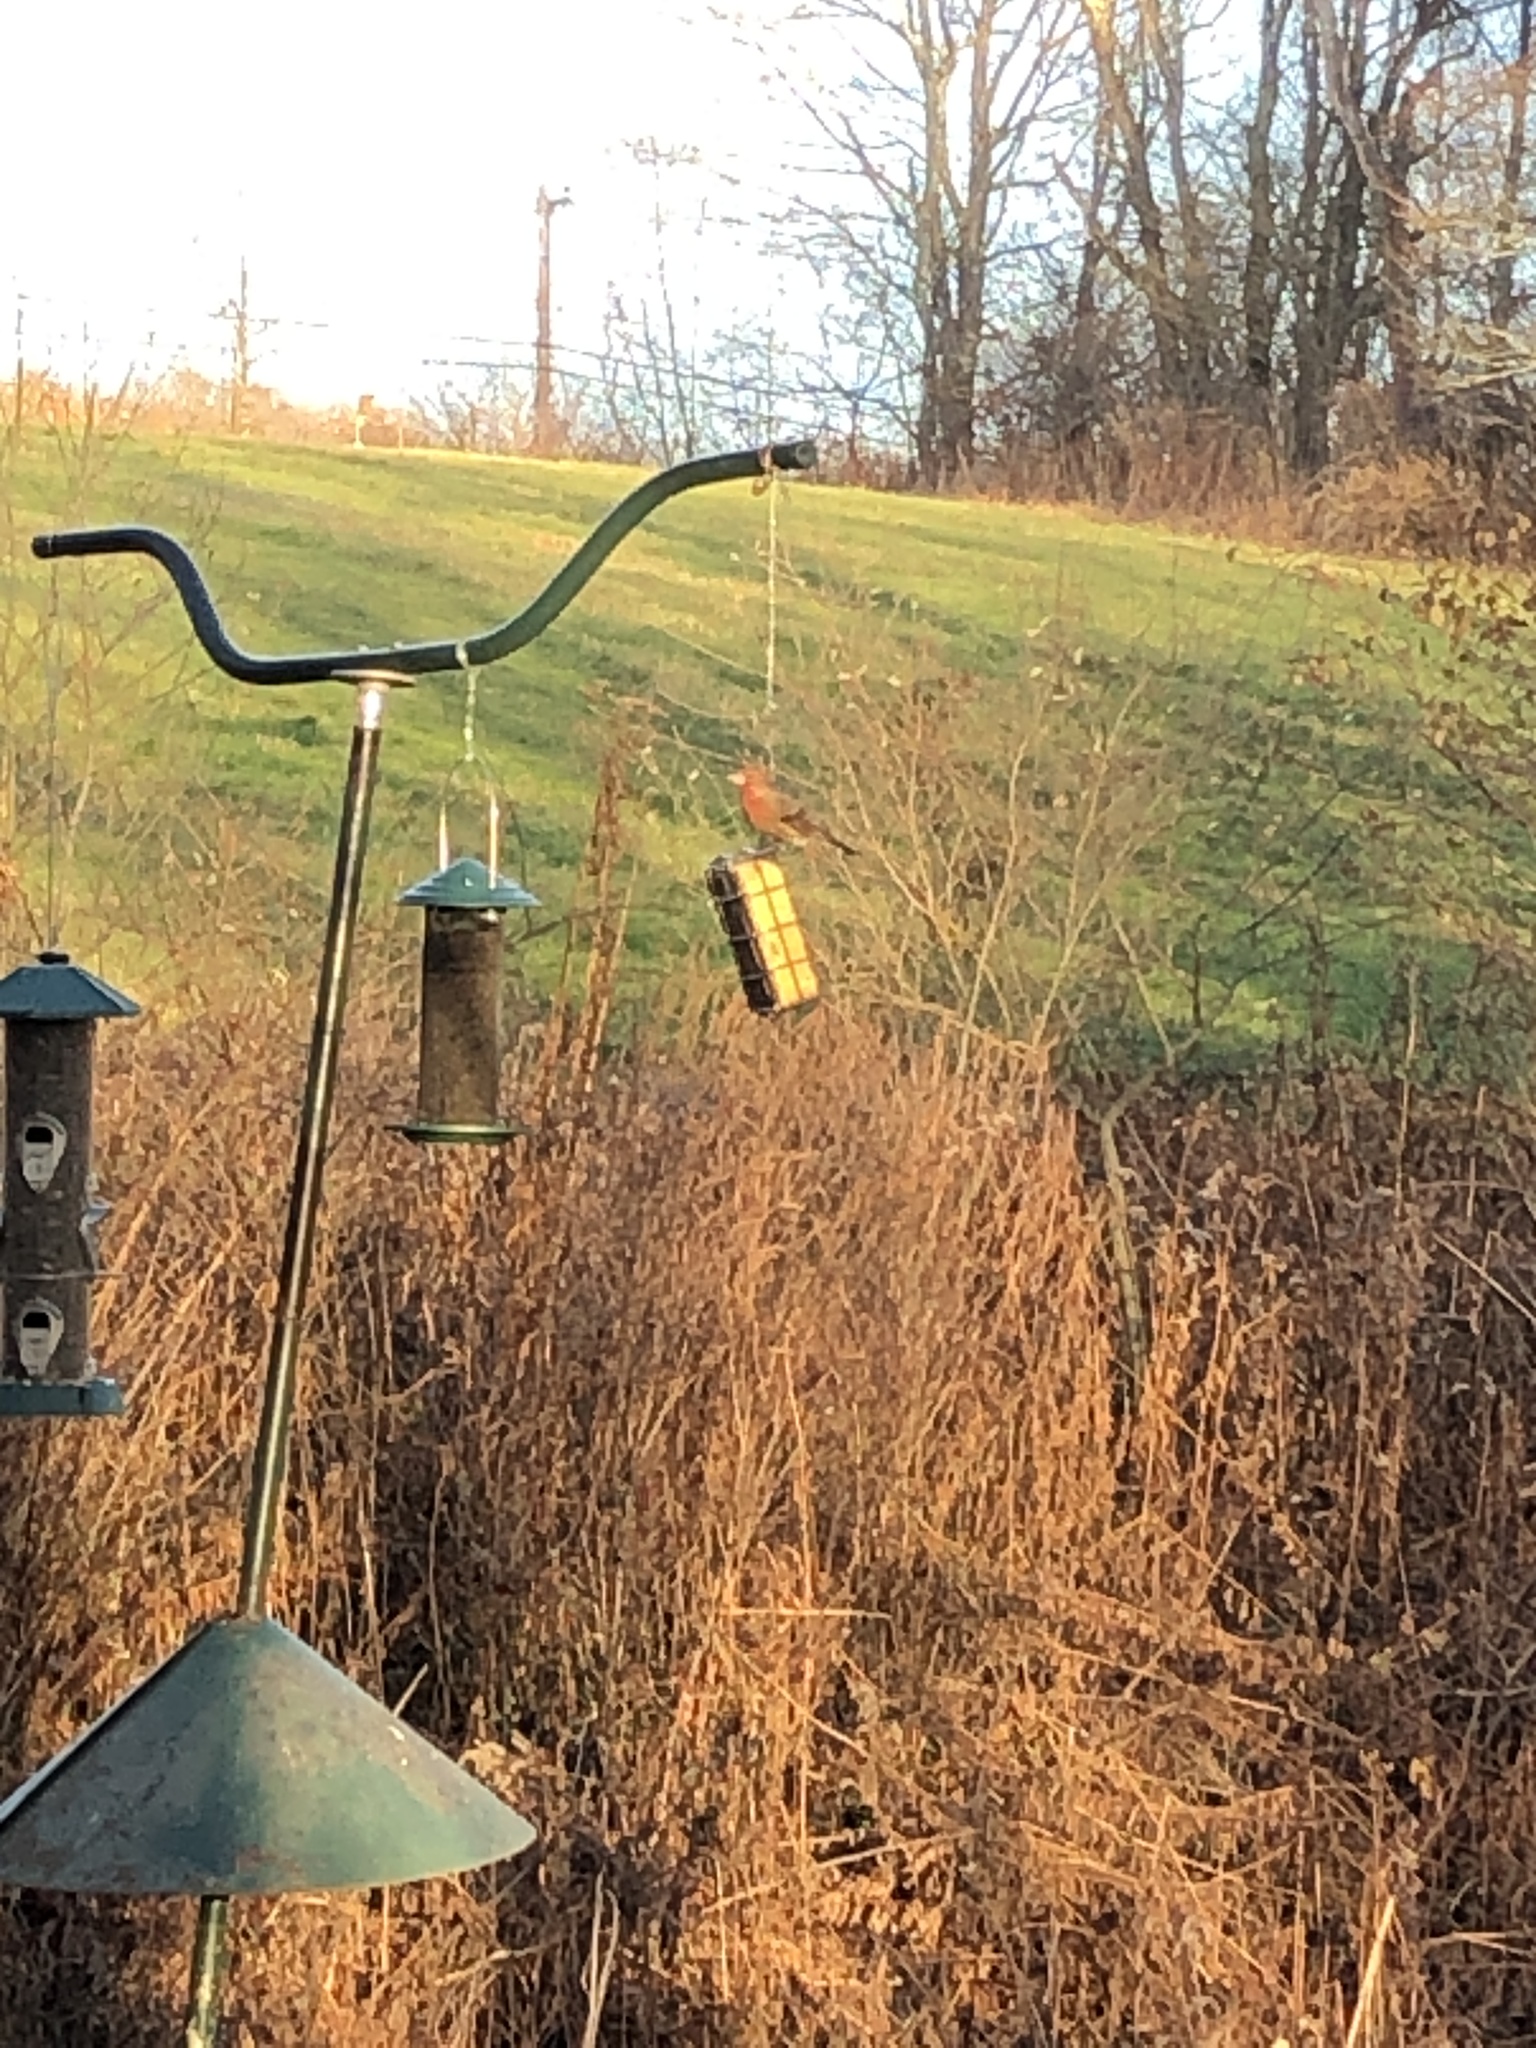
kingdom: Animalia
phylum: Chordata
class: Aves
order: Passeriformes
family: Fringillidae
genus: Haemorhous
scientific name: Haemorhous mexicanus
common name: House finch
